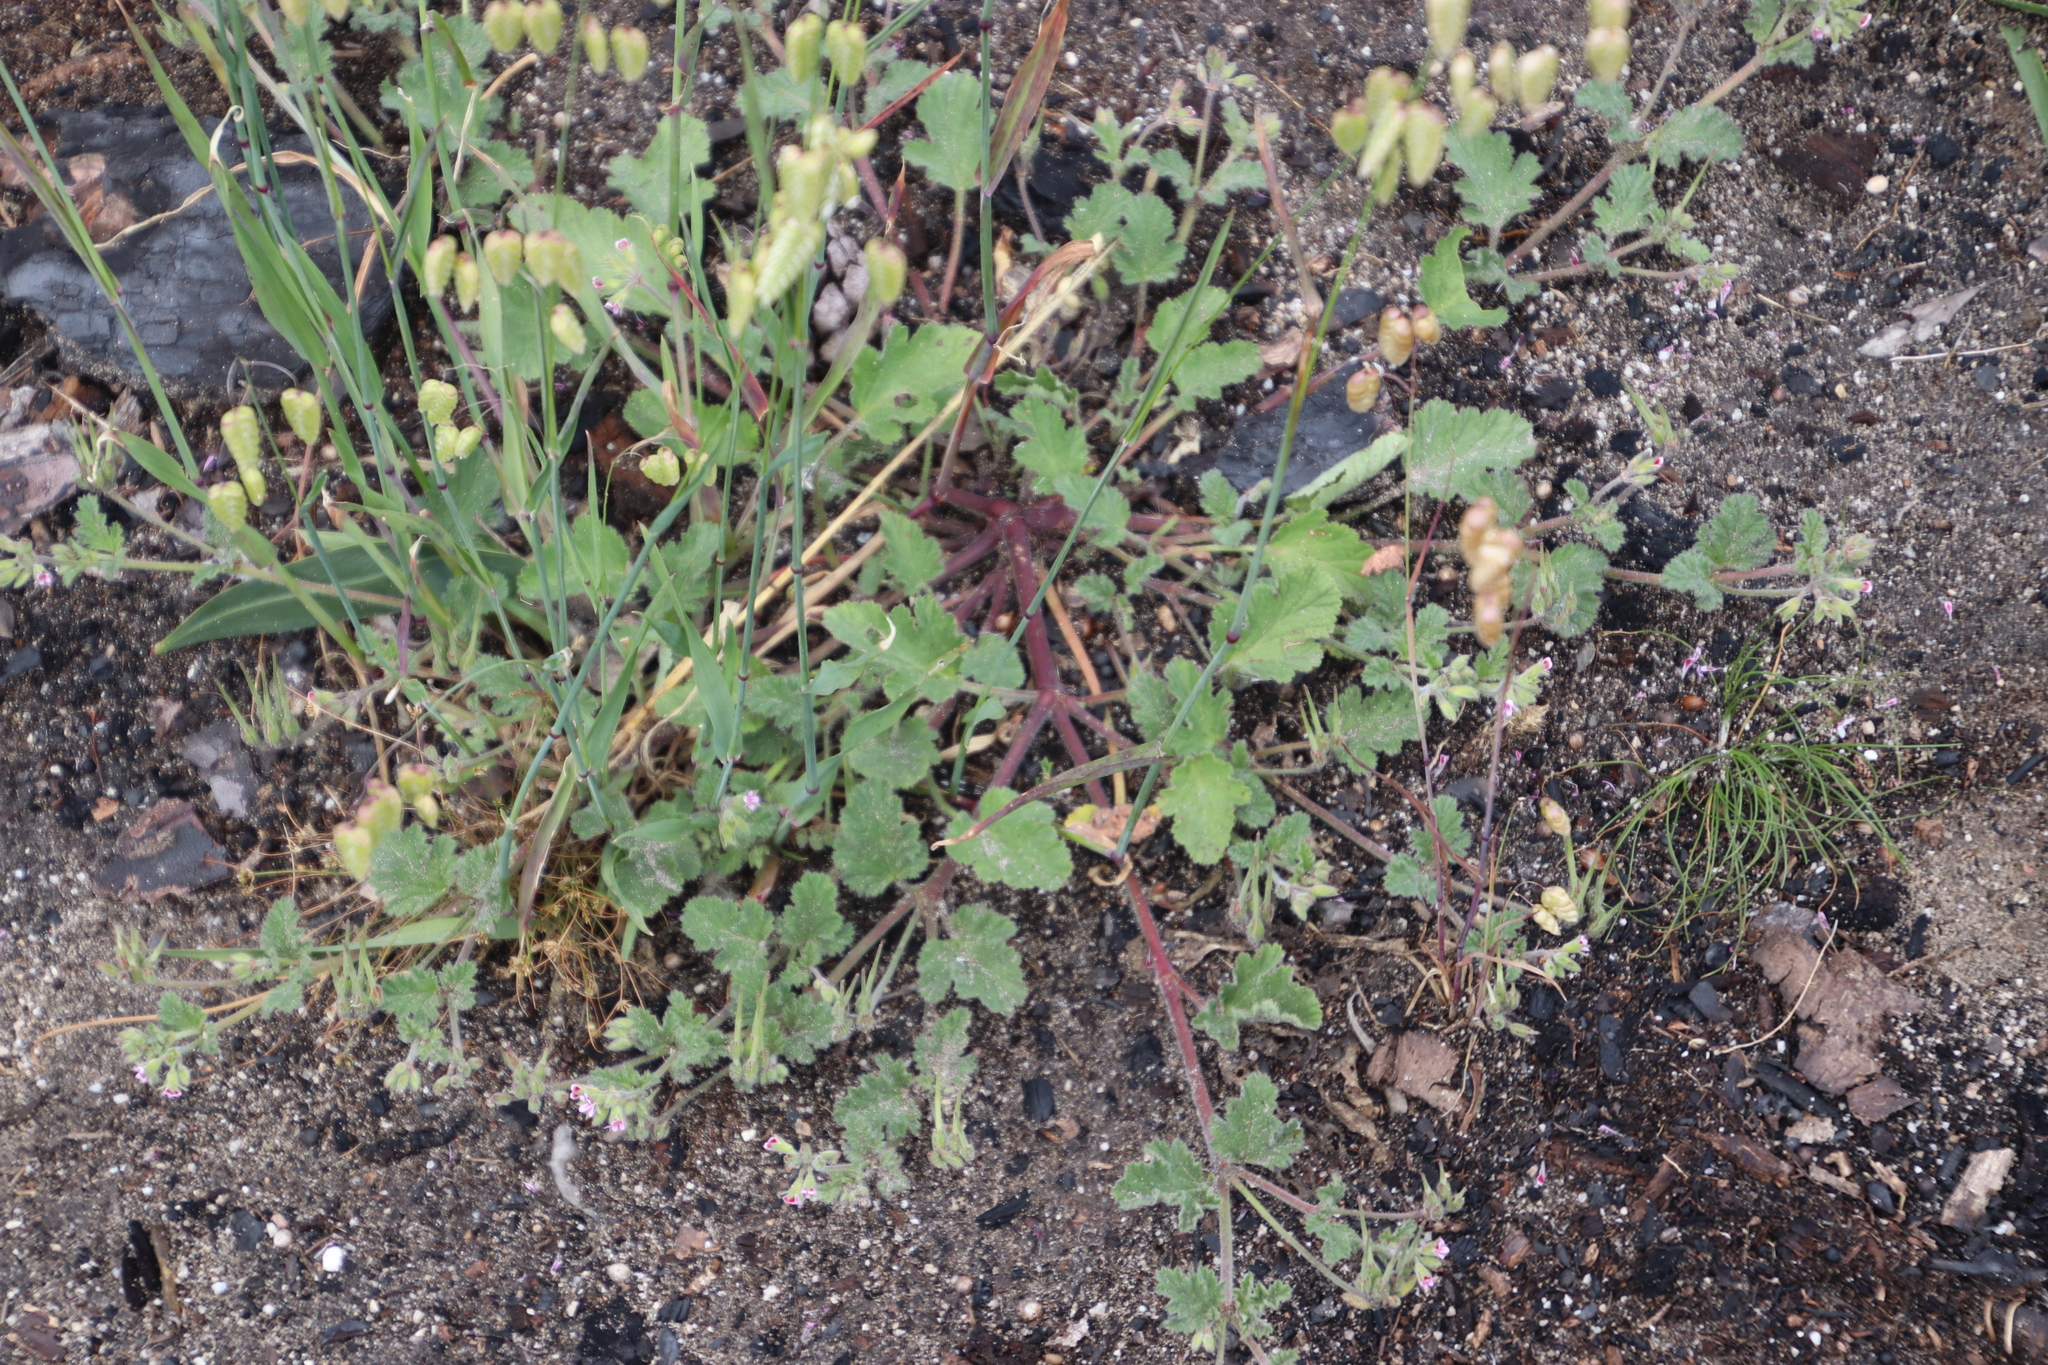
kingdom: Plantae
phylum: Tracheophyta
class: Magnoliopsida
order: Geraniales
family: Geraniaceae
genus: Pelargonium
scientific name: Pelargonium althaeoides
